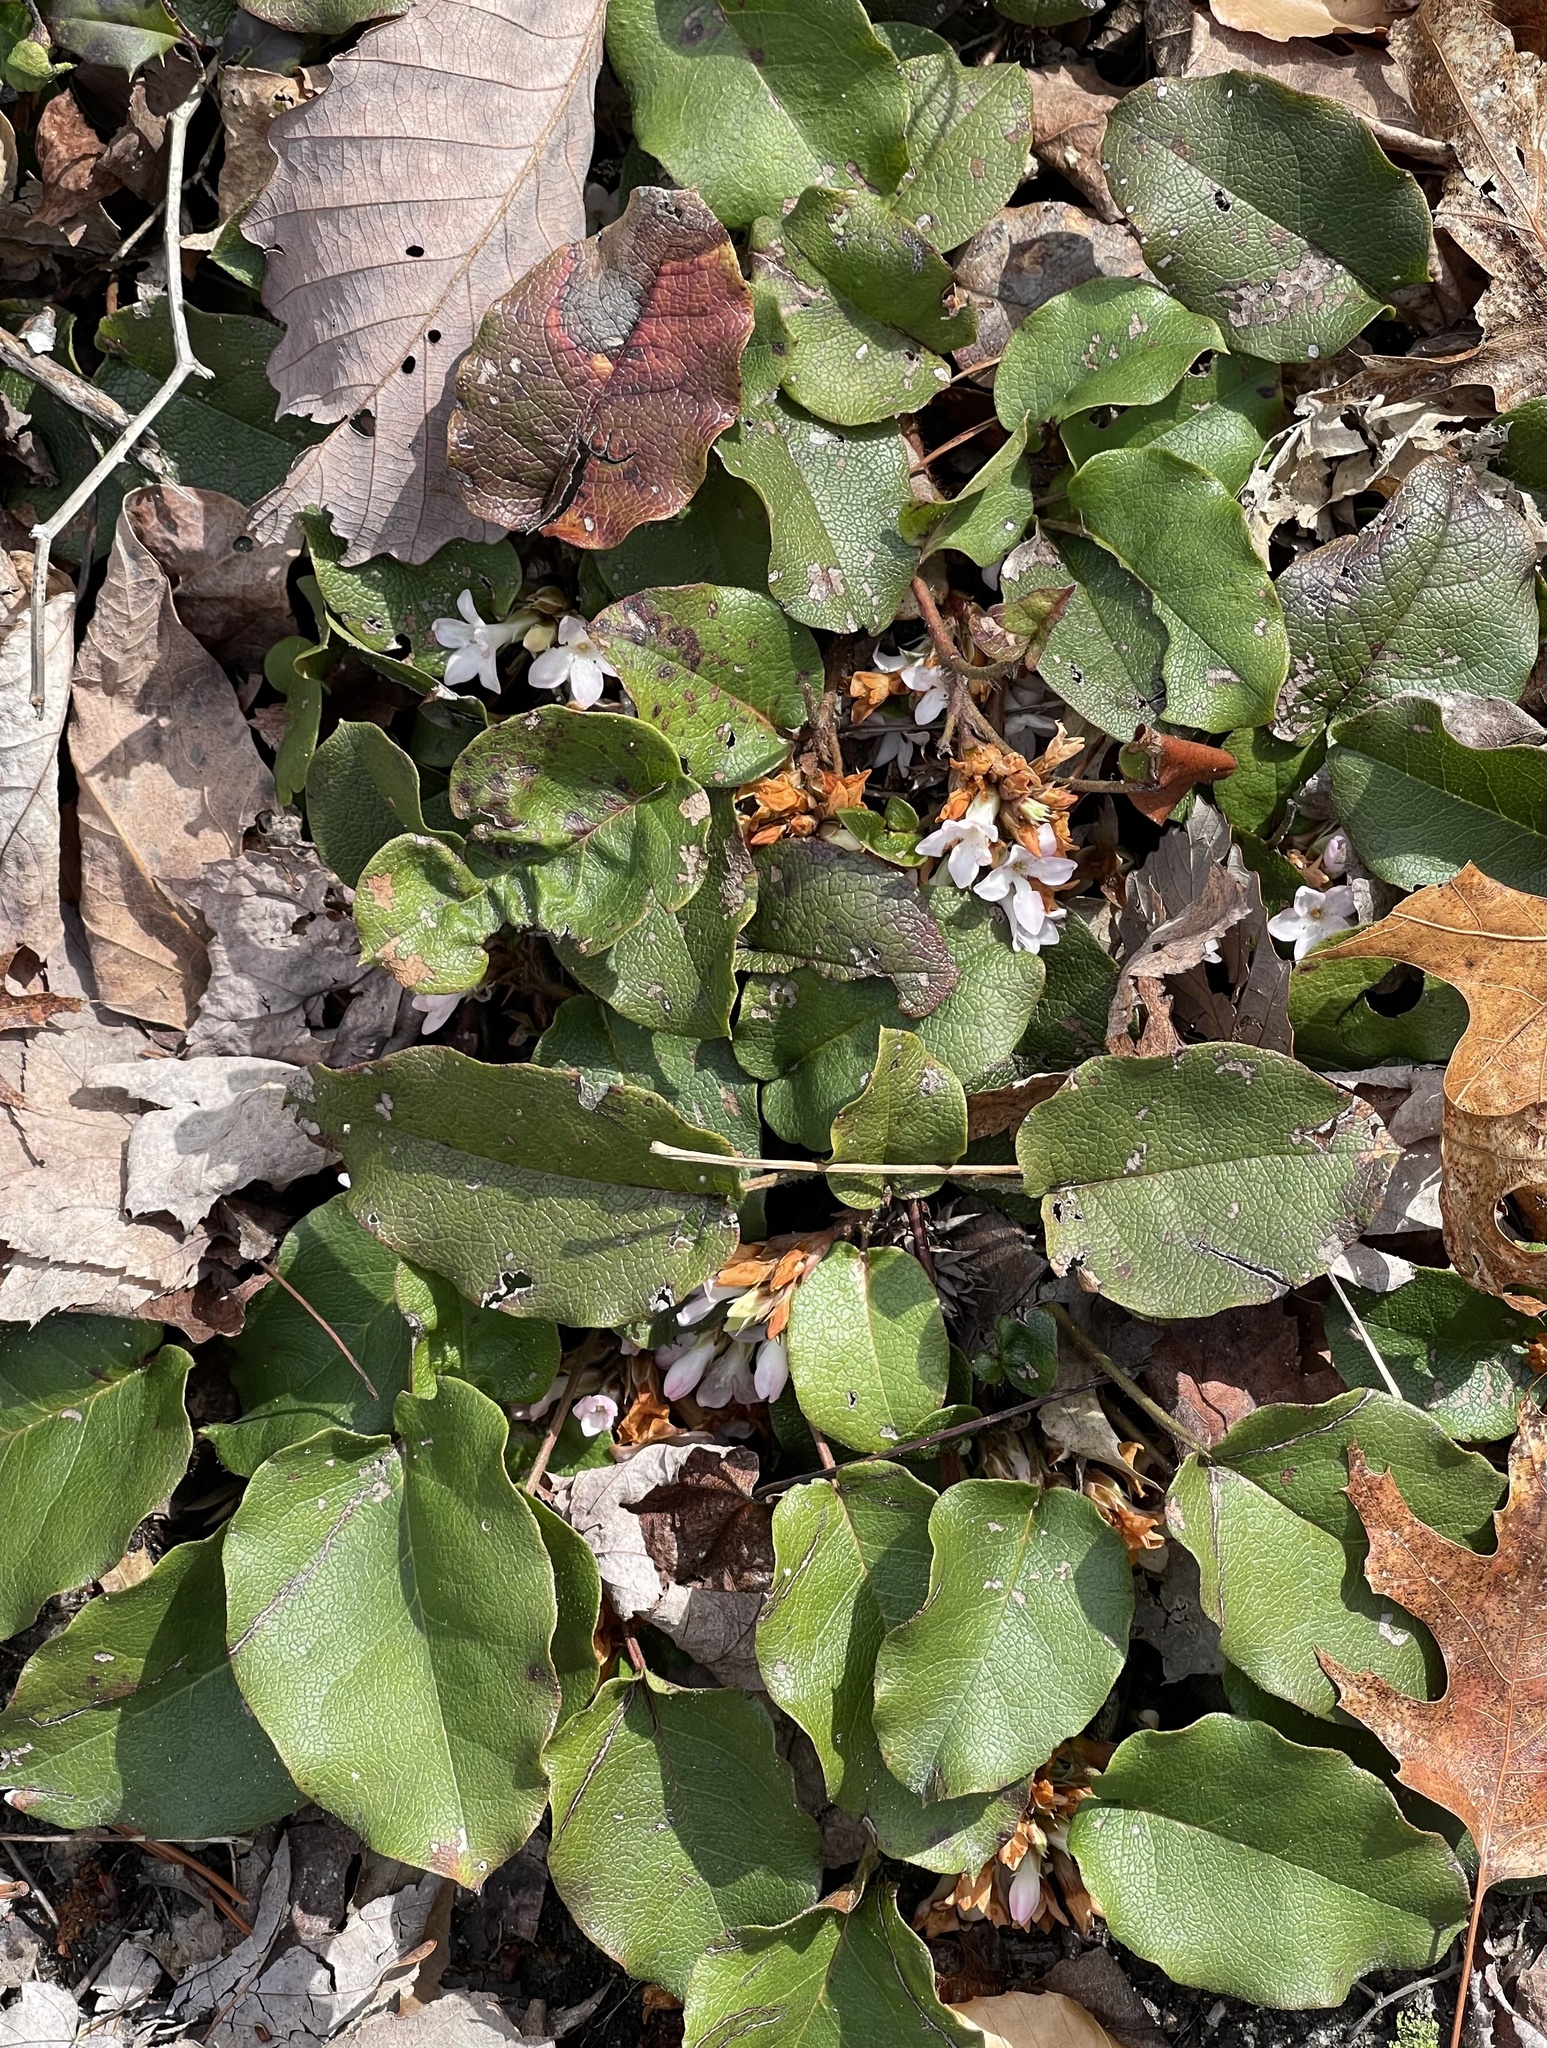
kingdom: Plantae
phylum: Tracheophyta
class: Magnoliopsida
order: Ericales
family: Ericaceae
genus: Epigaea
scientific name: Epigaea repens
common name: Gravelroot
